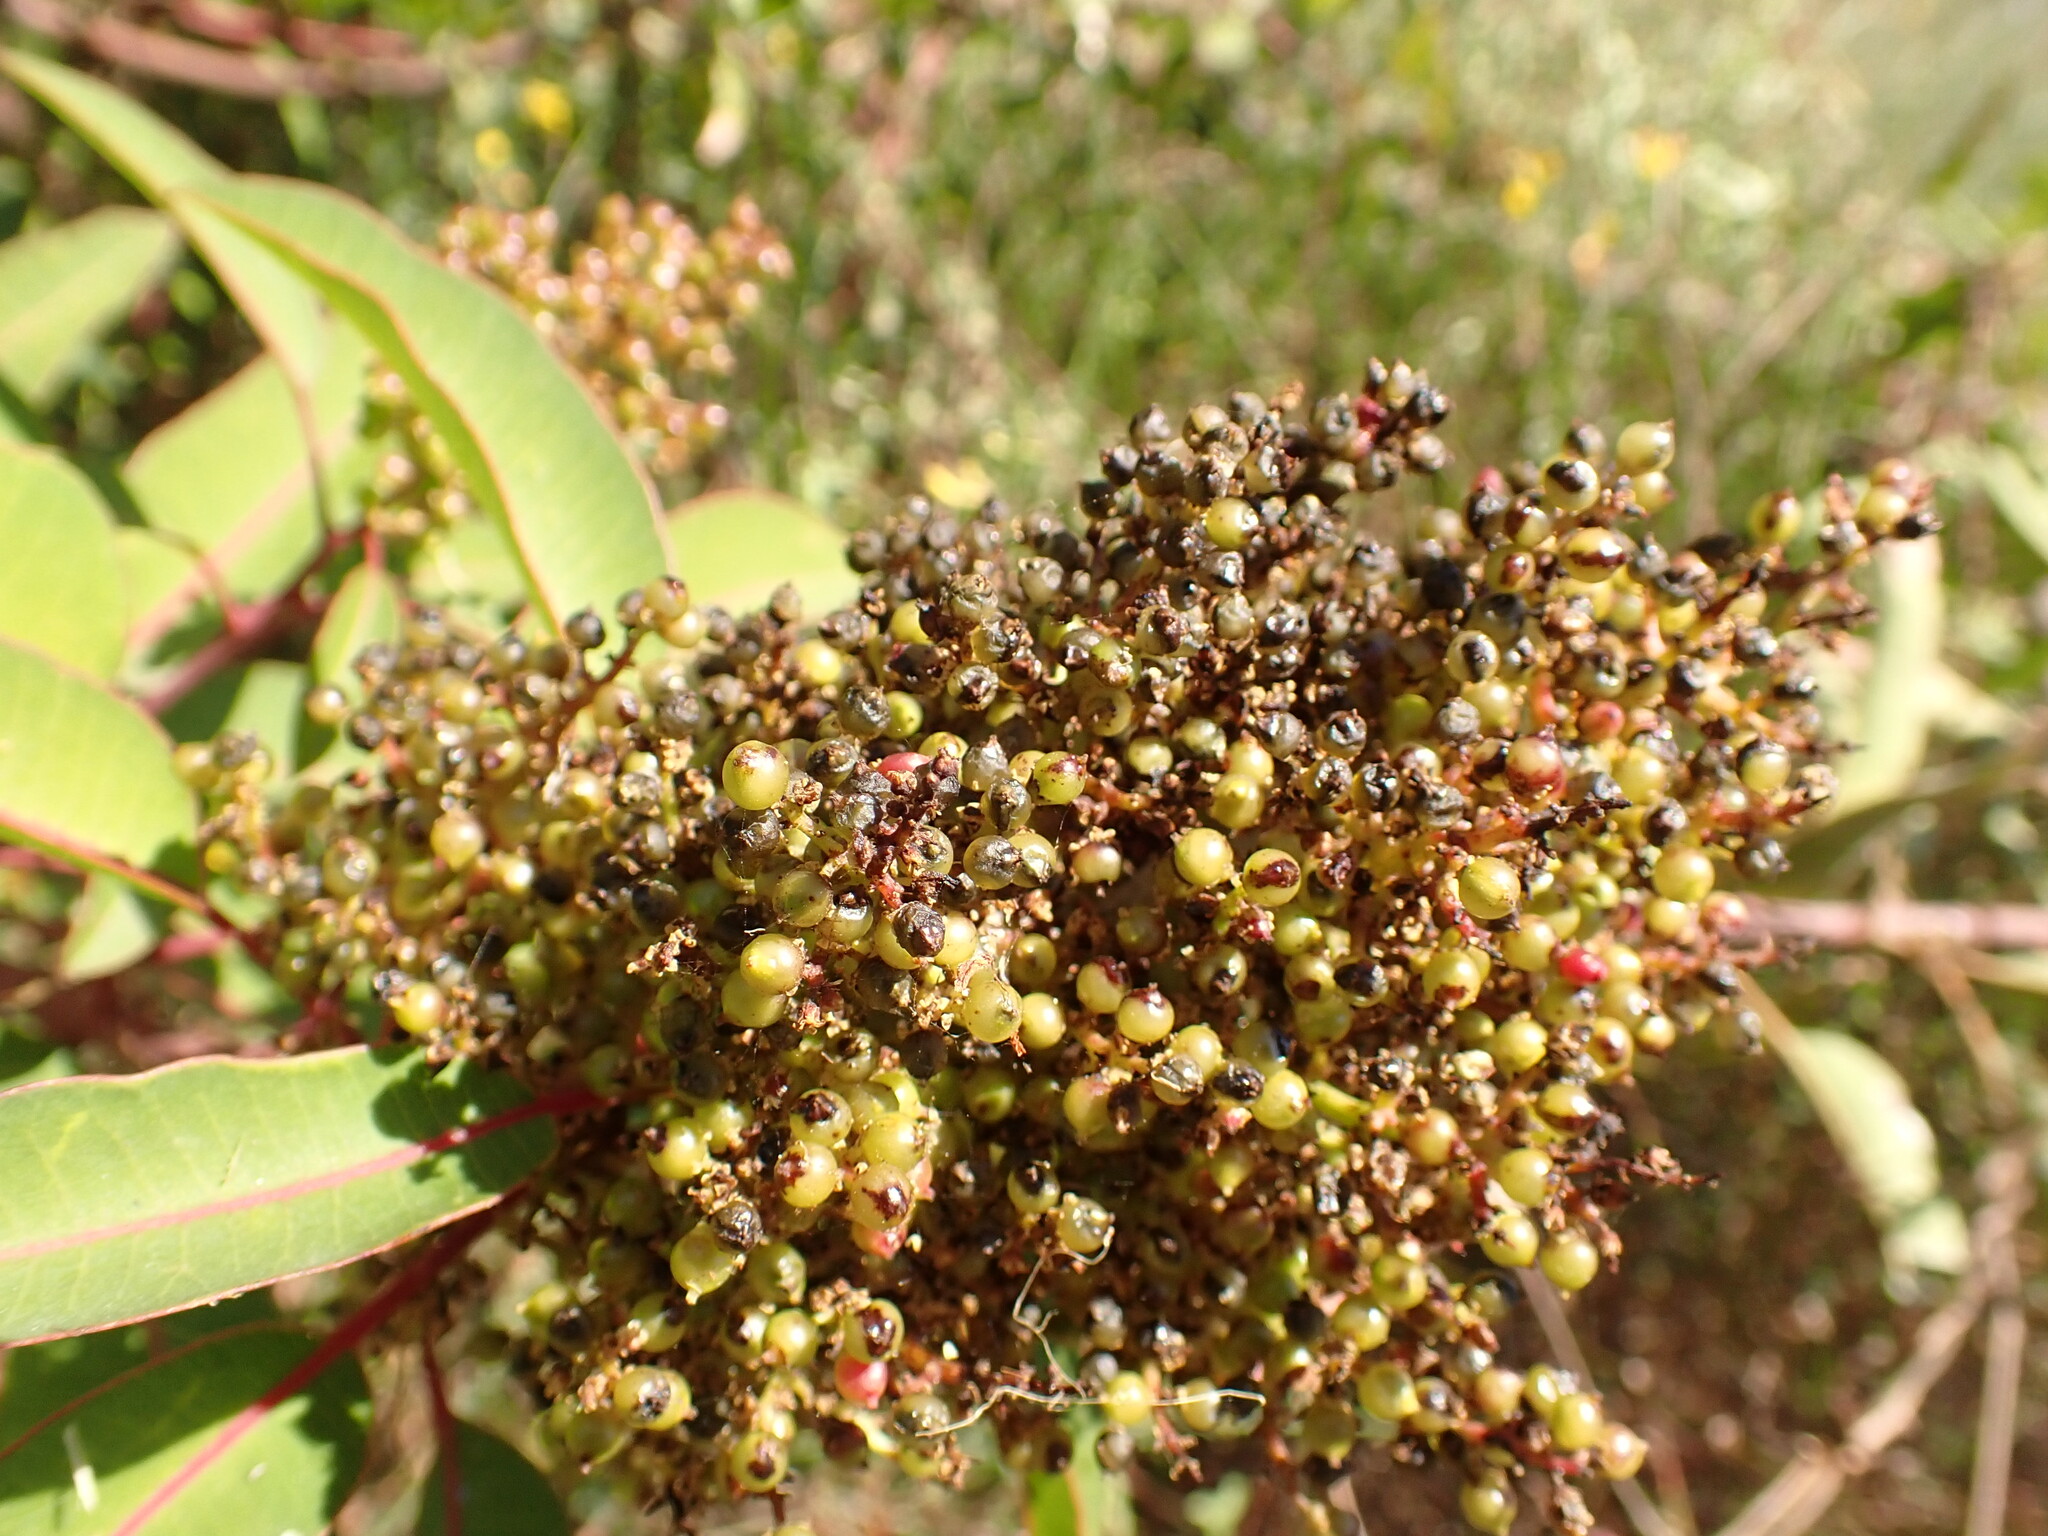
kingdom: Plantae
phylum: Tracheophyta
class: Magnoliopsida
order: Sapindales
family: Anacardiaceae
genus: Malosma
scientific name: Malosma laurina
